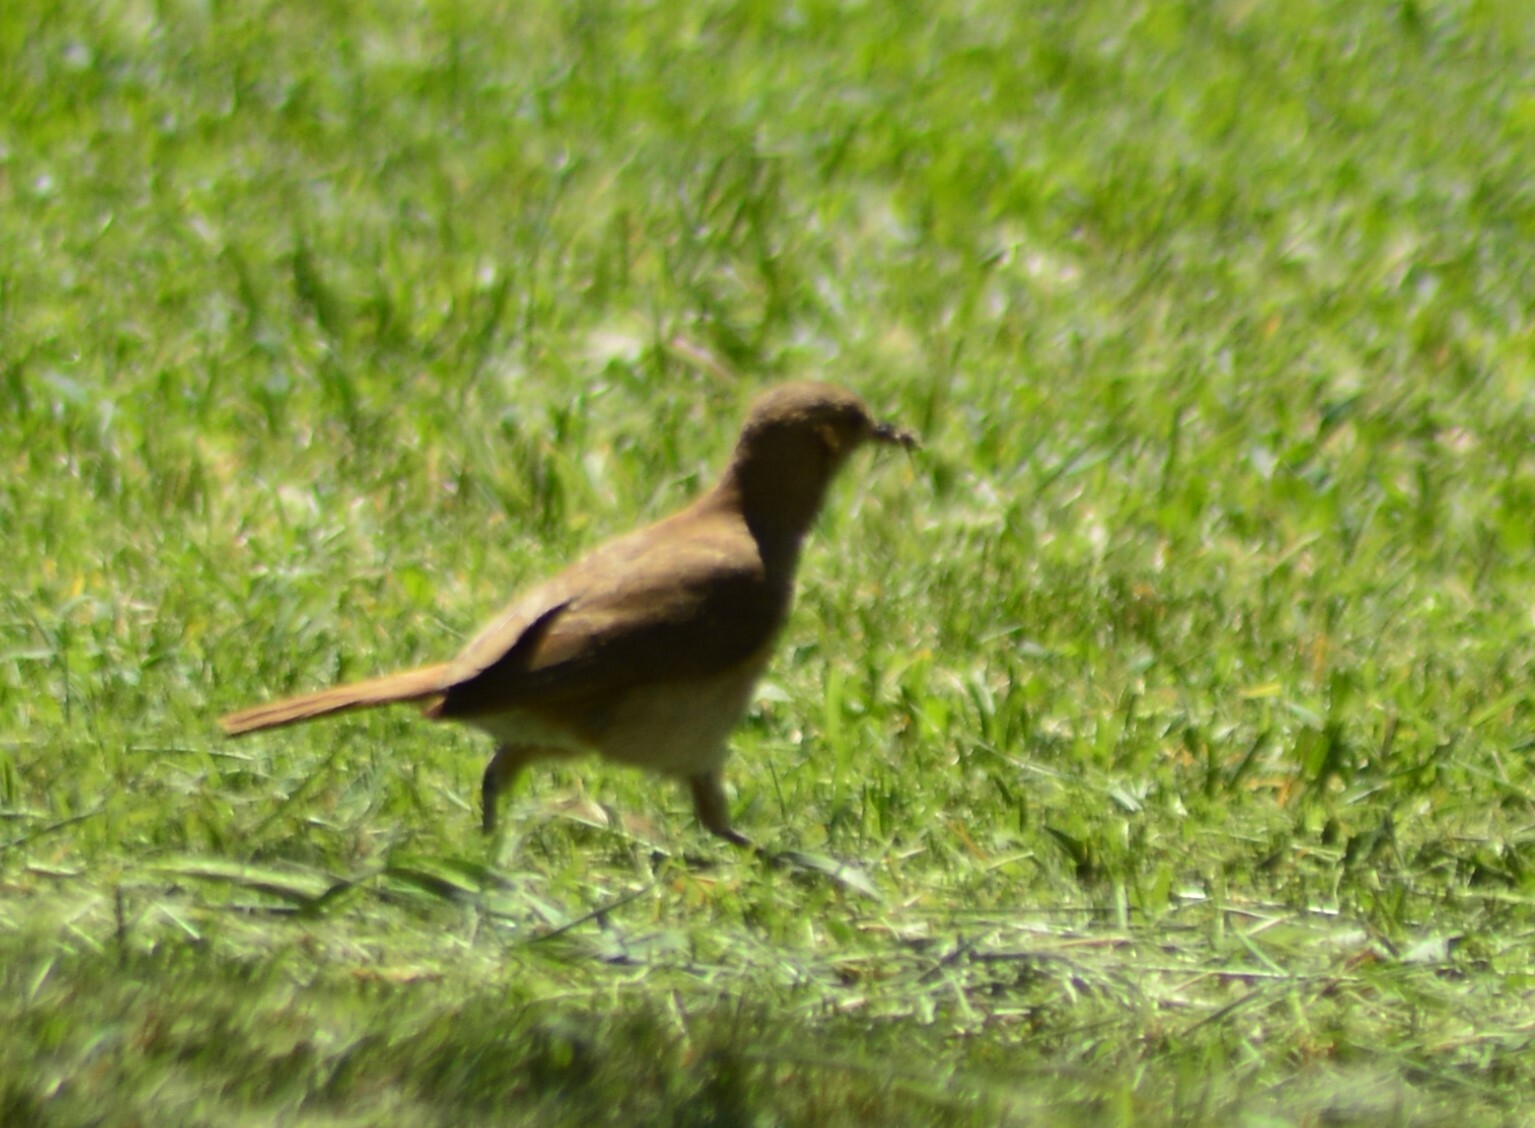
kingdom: Animalia
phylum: Chordata
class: Aves
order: Passeriformes
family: Furnariidae
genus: Furnarius
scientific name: Furnarius rufus
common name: Rufous hornero
